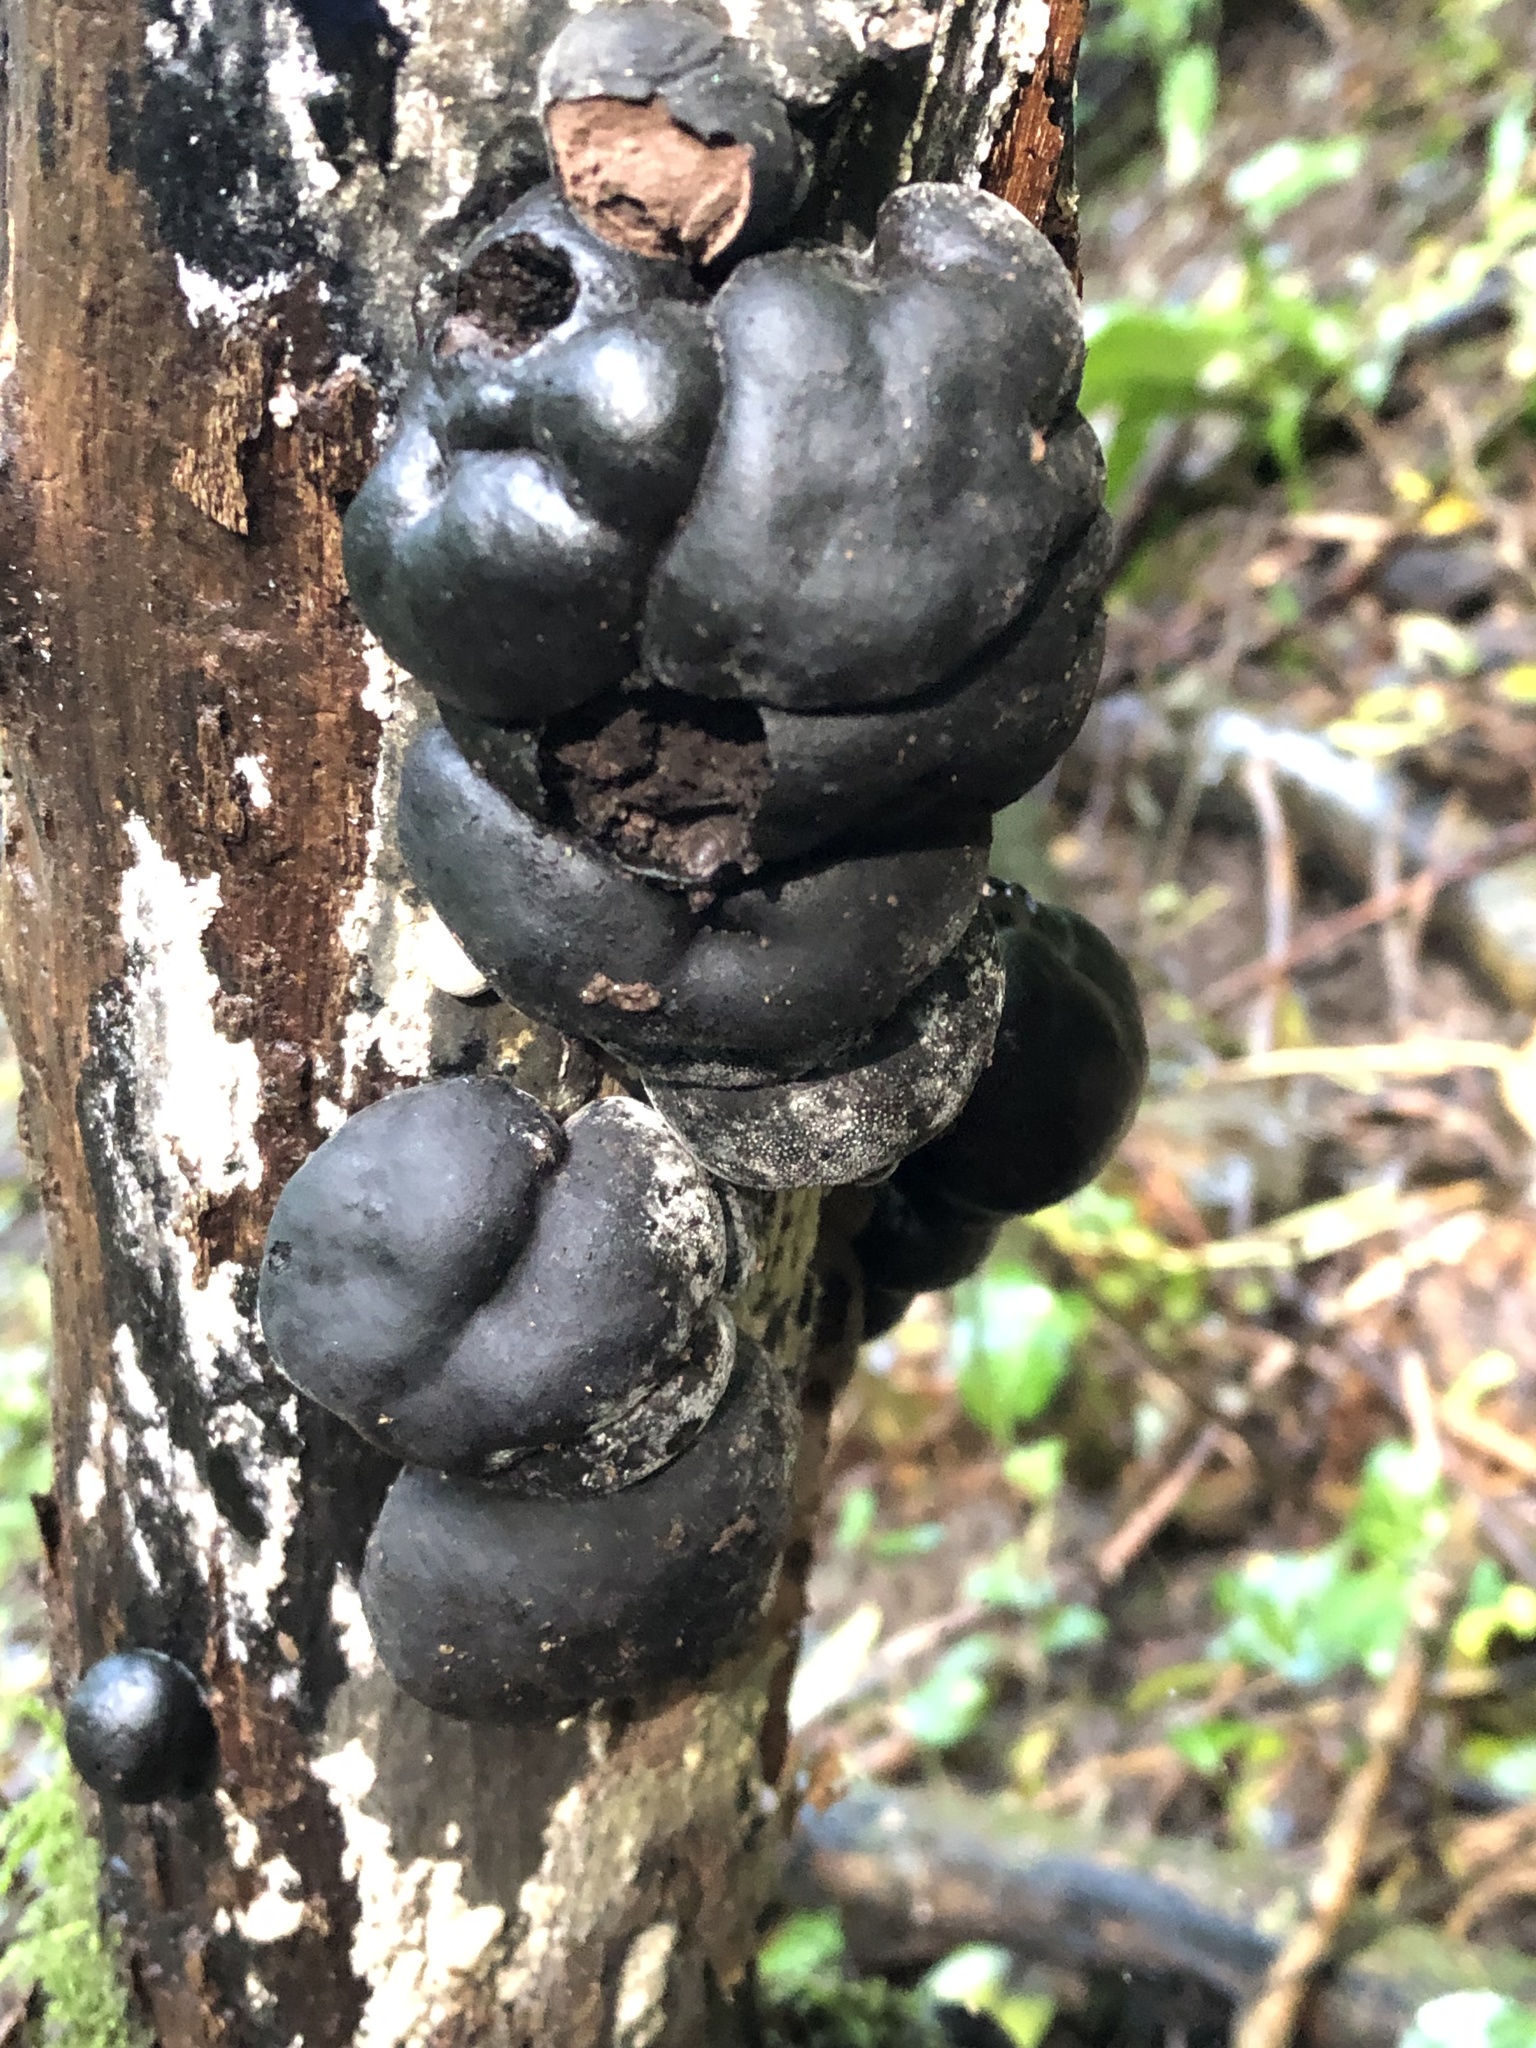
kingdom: Fungi
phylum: Ascomycota
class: Sordariomycetes
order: Xylariales
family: Hypoxylaceae
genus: Daldinia
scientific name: Daldinia concentrica
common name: Cramp balls
